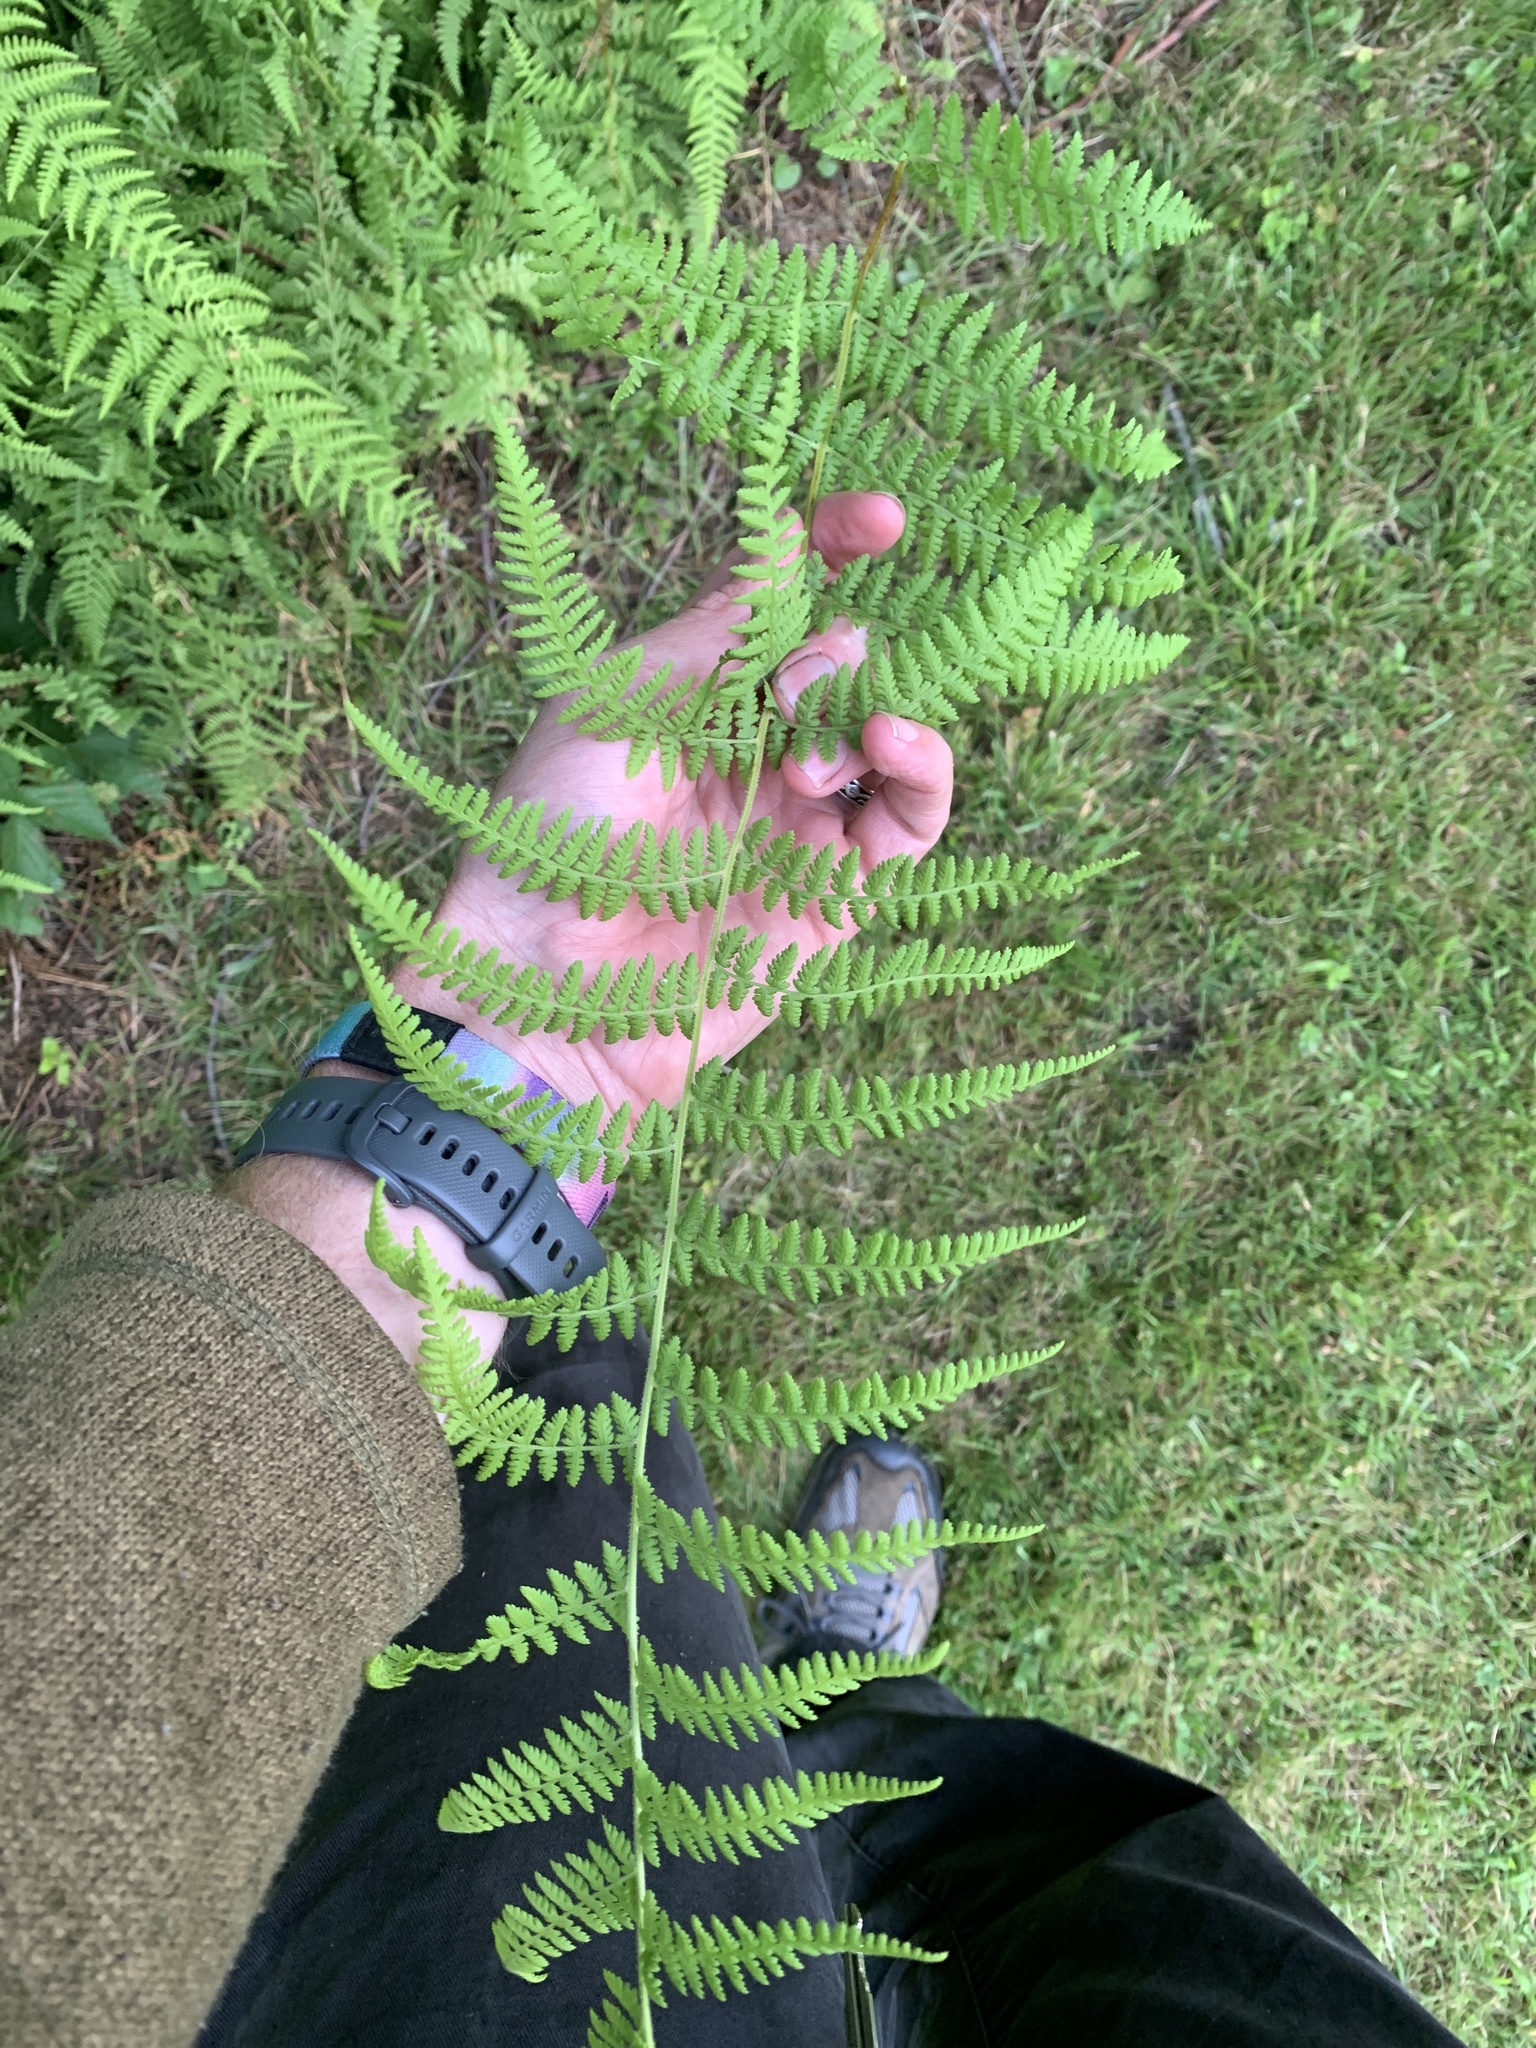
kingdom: Plantae
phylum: Tracheophyta
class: Polypodiopsida
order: Polypodiales
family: Dennstaedtiaceae
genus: Sitobolium
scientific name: Sitobolium punctilobum
